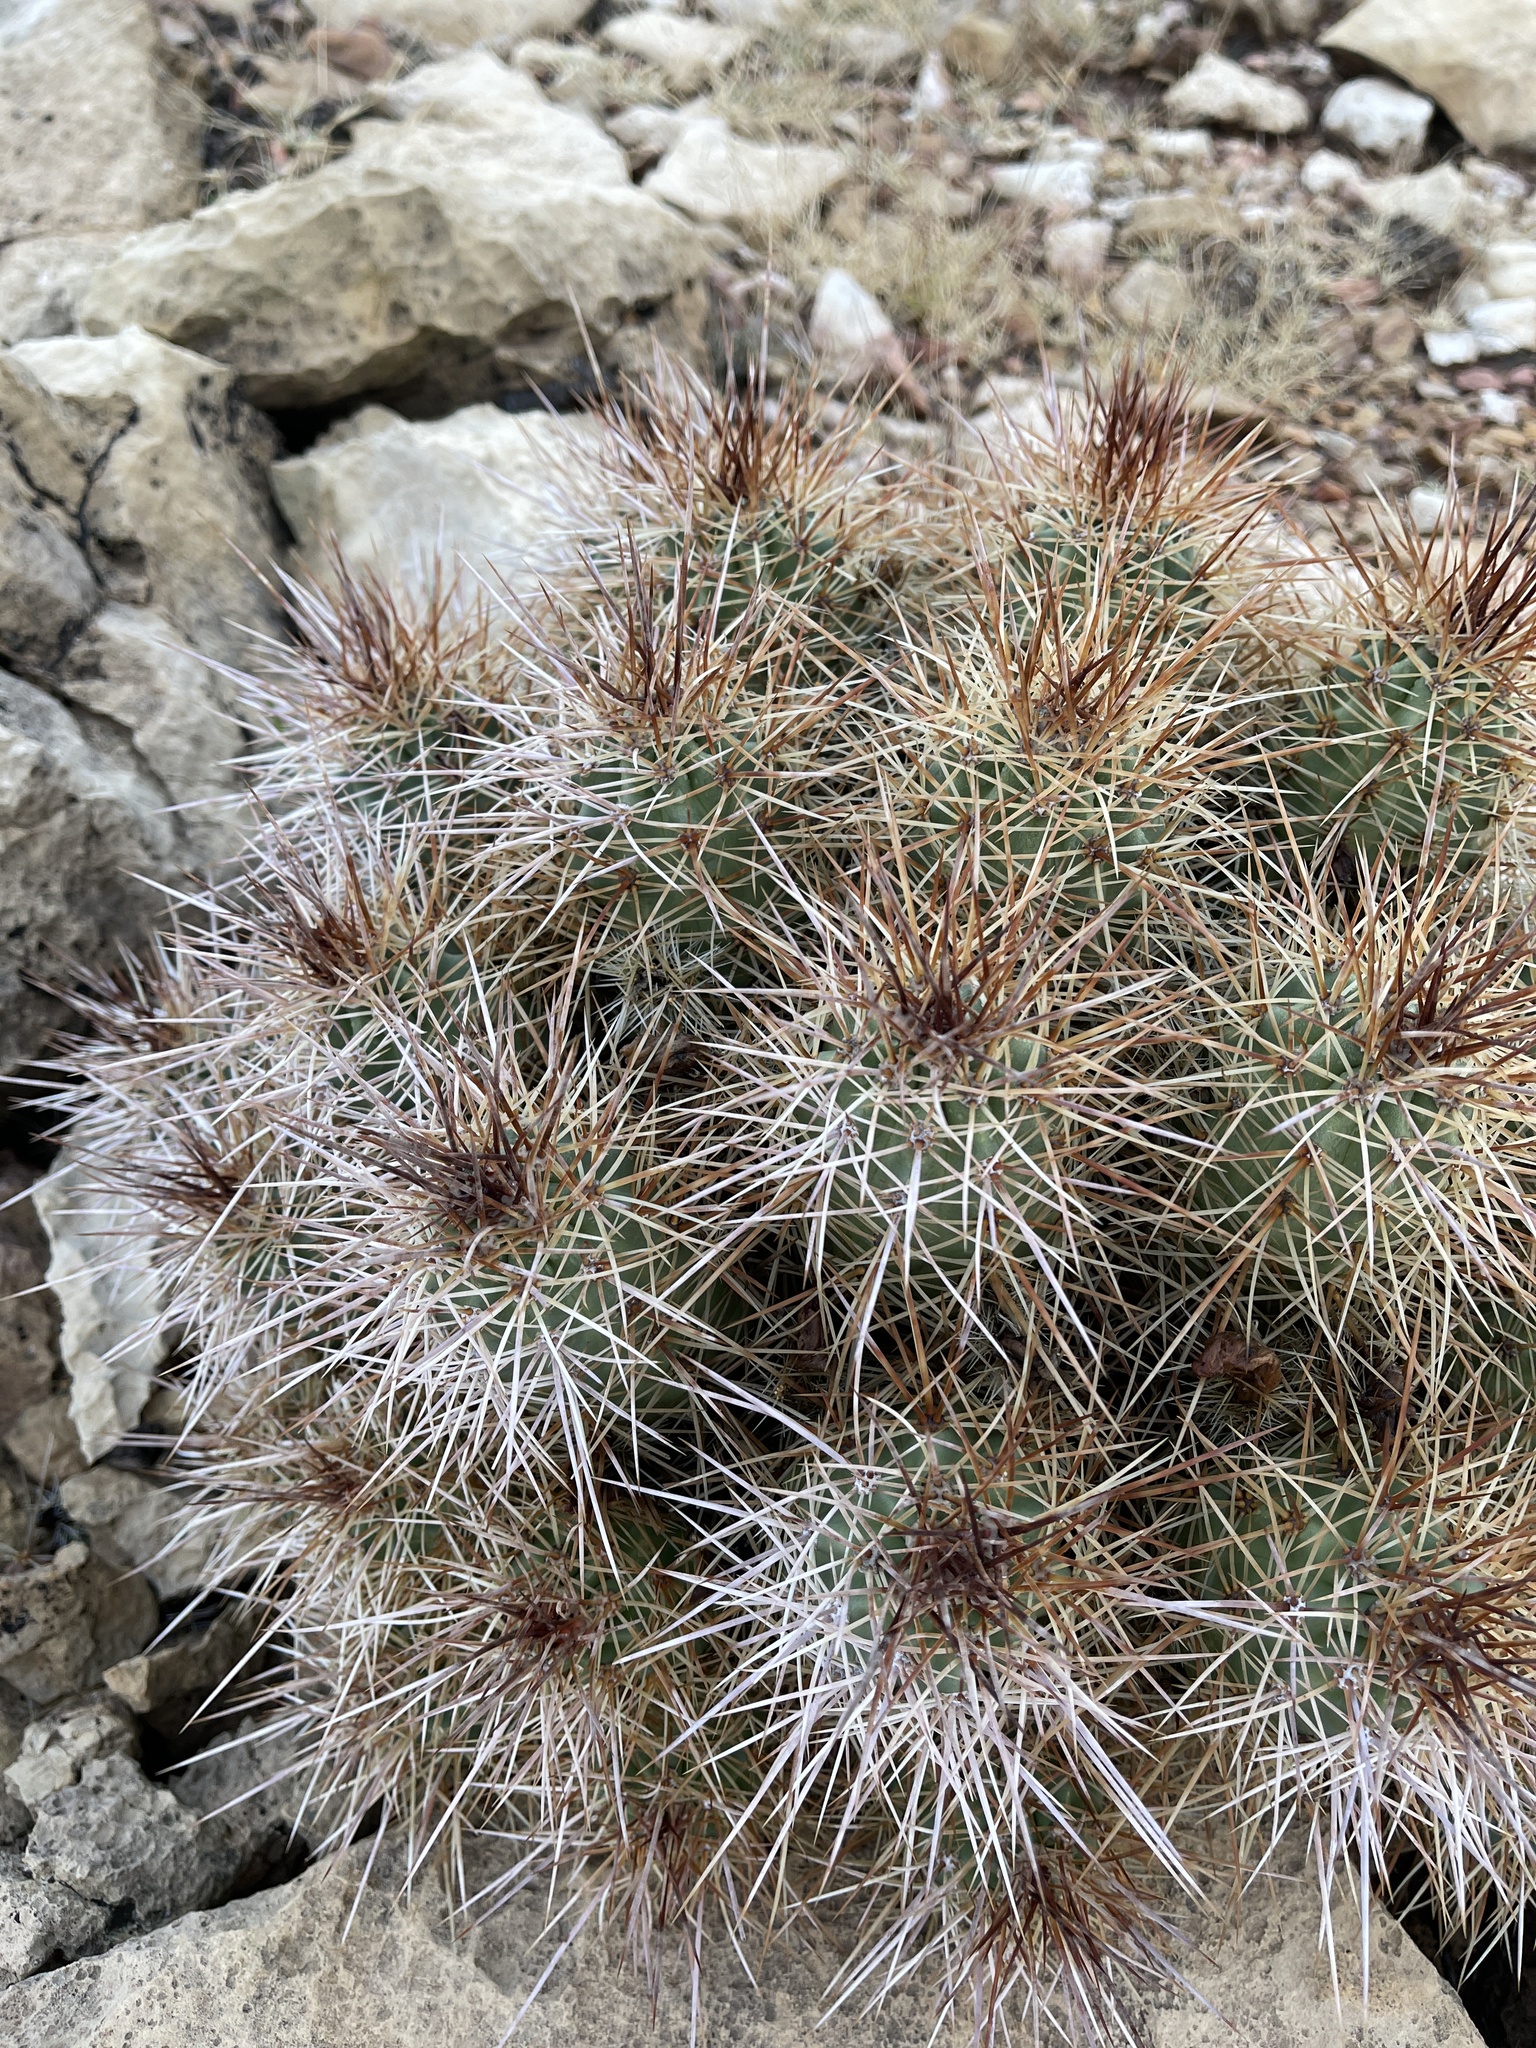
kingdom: Plantae
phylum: Tracheophyta
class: Magnoliopsida
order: Caryophyllales
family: Cactaceae
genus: Echinocereus
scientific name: Echinocereus triglochidiatus
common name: Claretcup hedgehog
